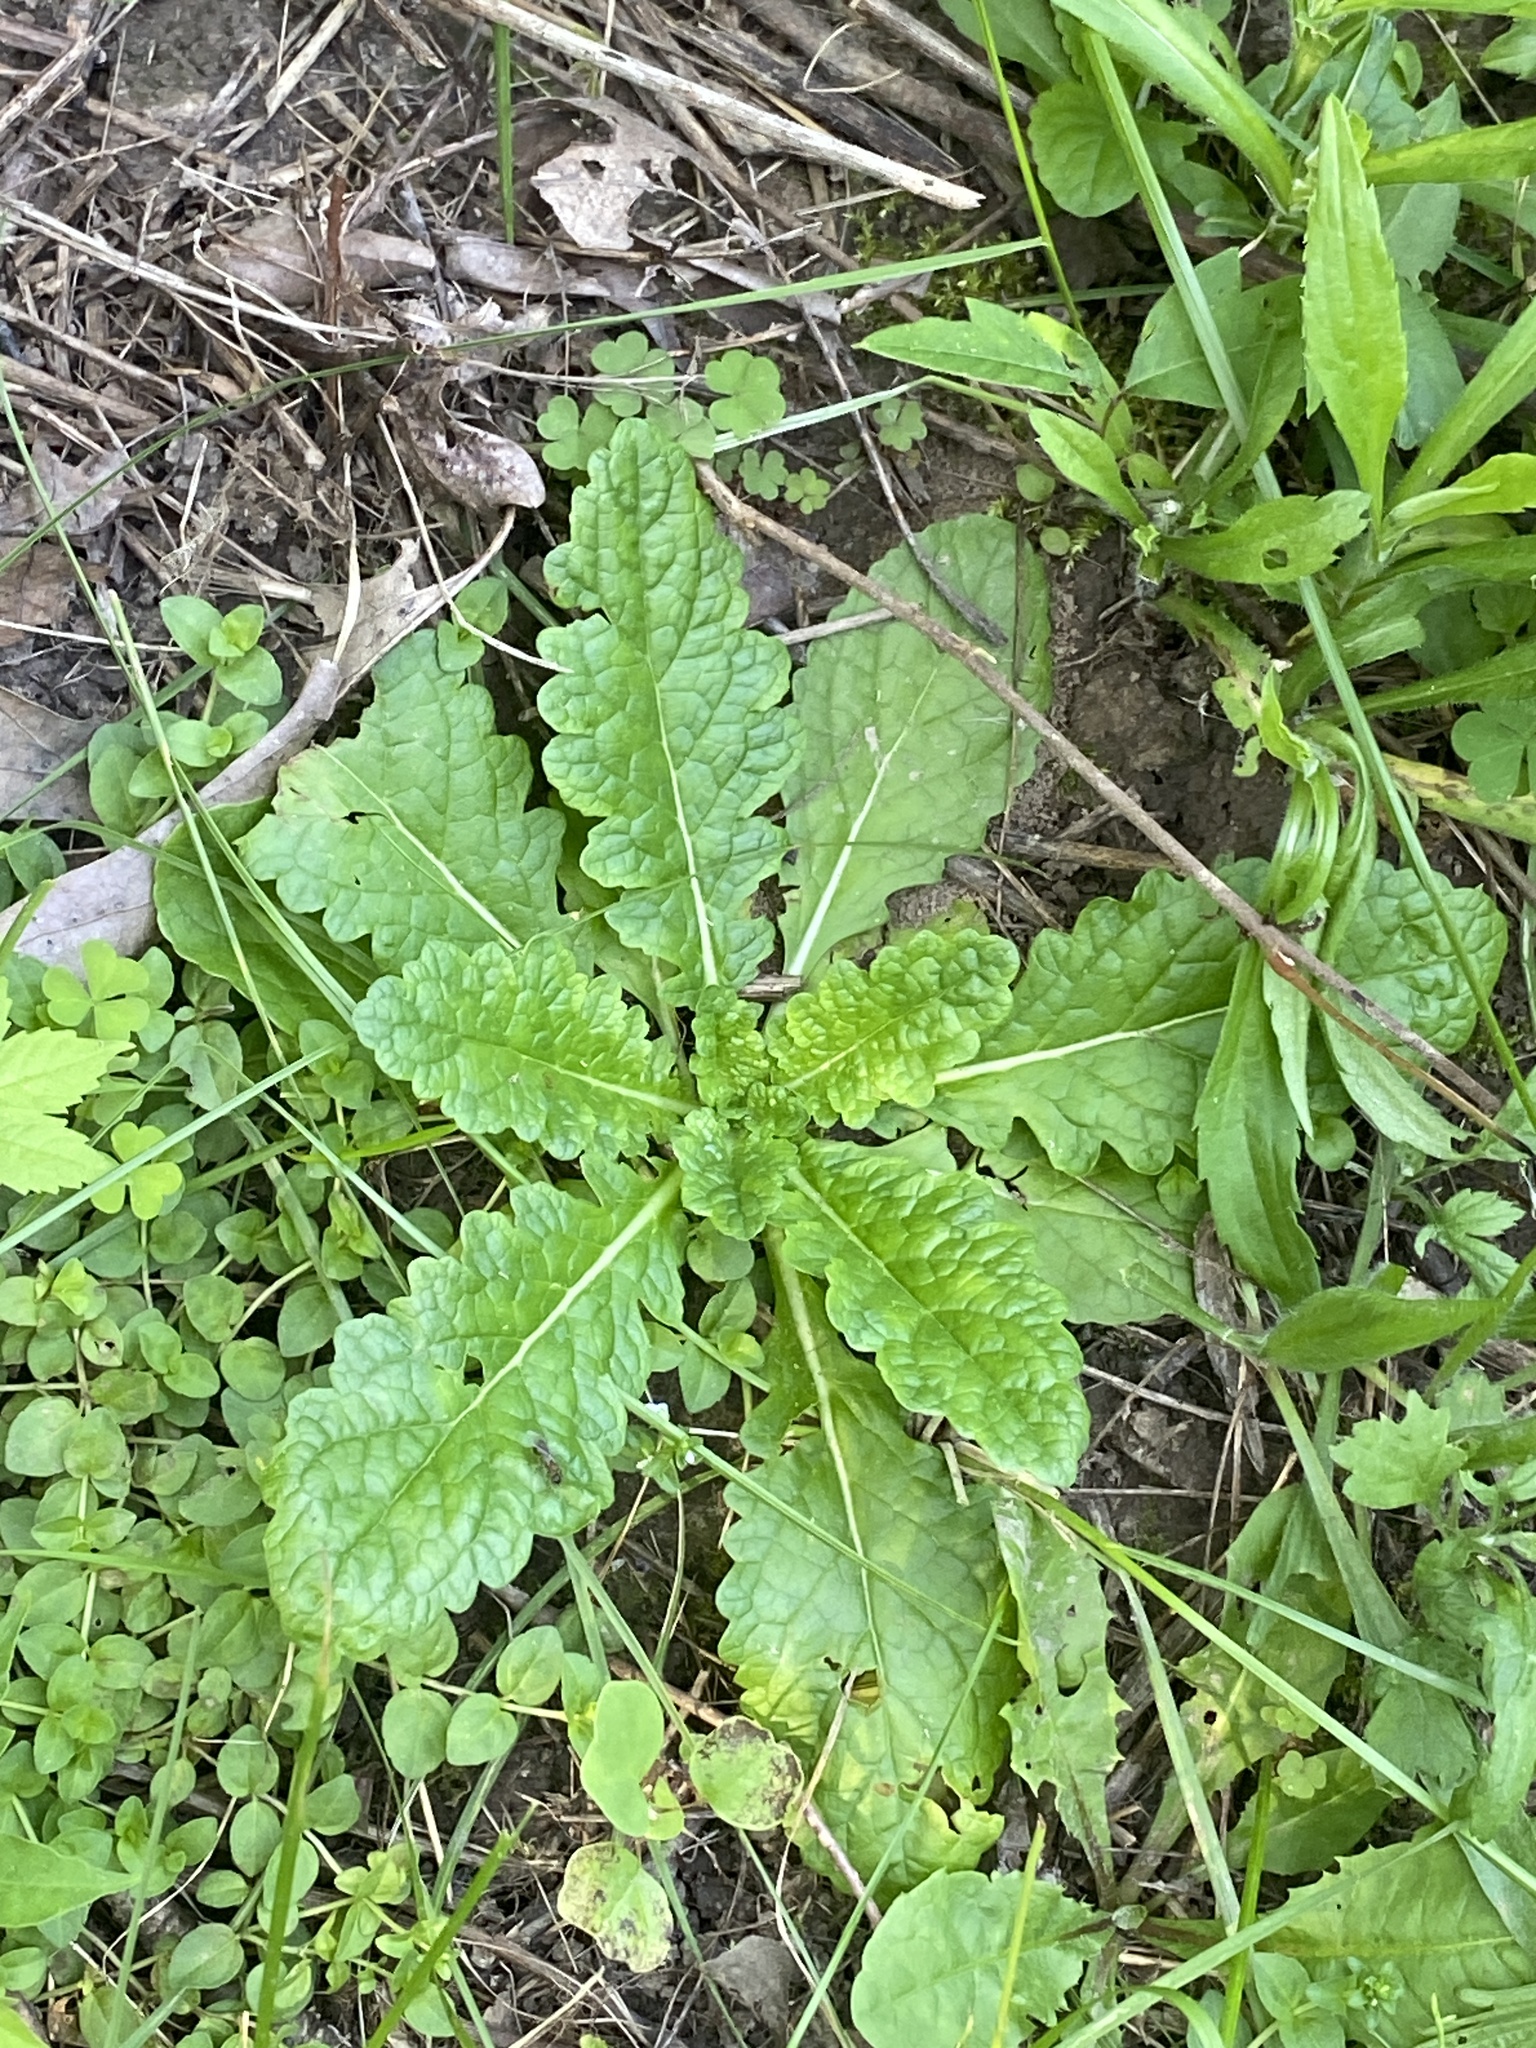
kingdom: Plantae
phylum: Tracheophyta
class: Magnoliopsida
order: Lamiales
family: Scrophulariaceae
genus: Verbascum
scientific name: Verbascum blattaria
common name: Moth mullein
